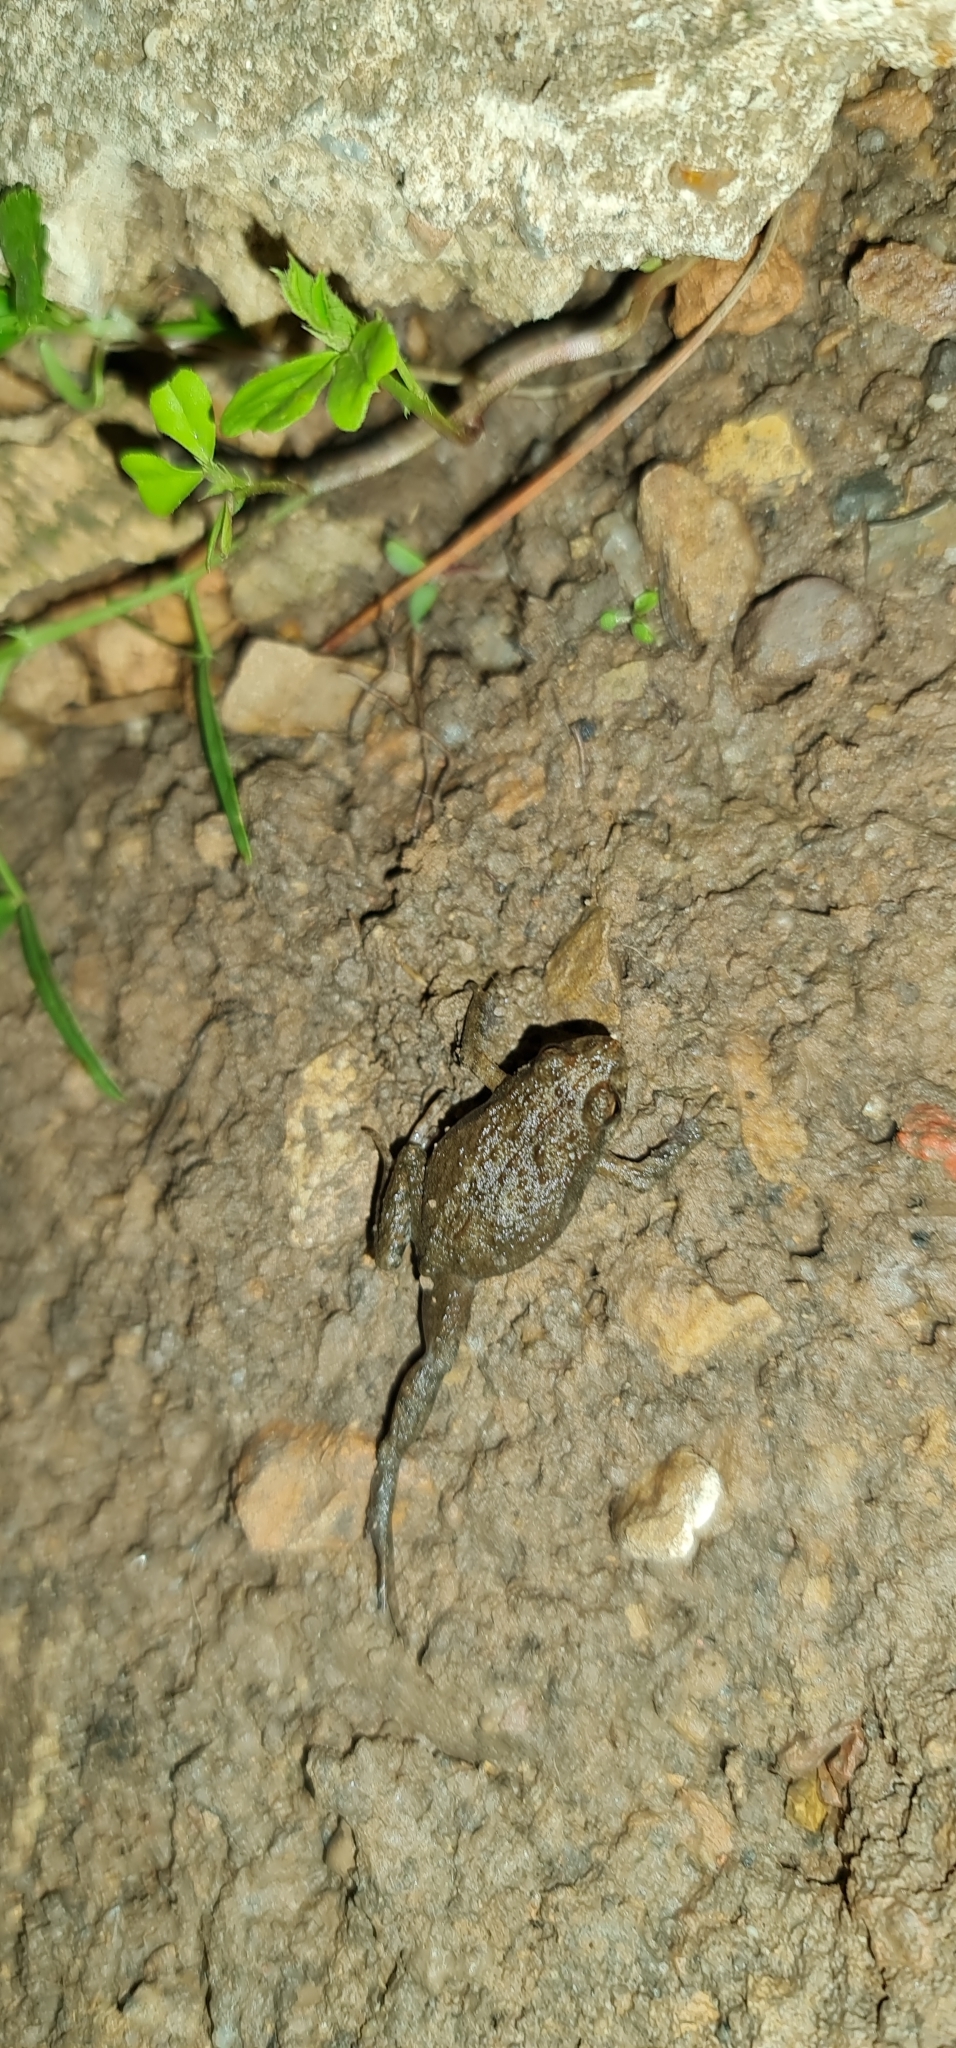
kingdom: Animalia
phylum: Chordata
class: Amphibia
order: Anura
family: Myobatrachidae
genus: Crinia
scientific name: Crinia signifera
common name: Brown froglet
